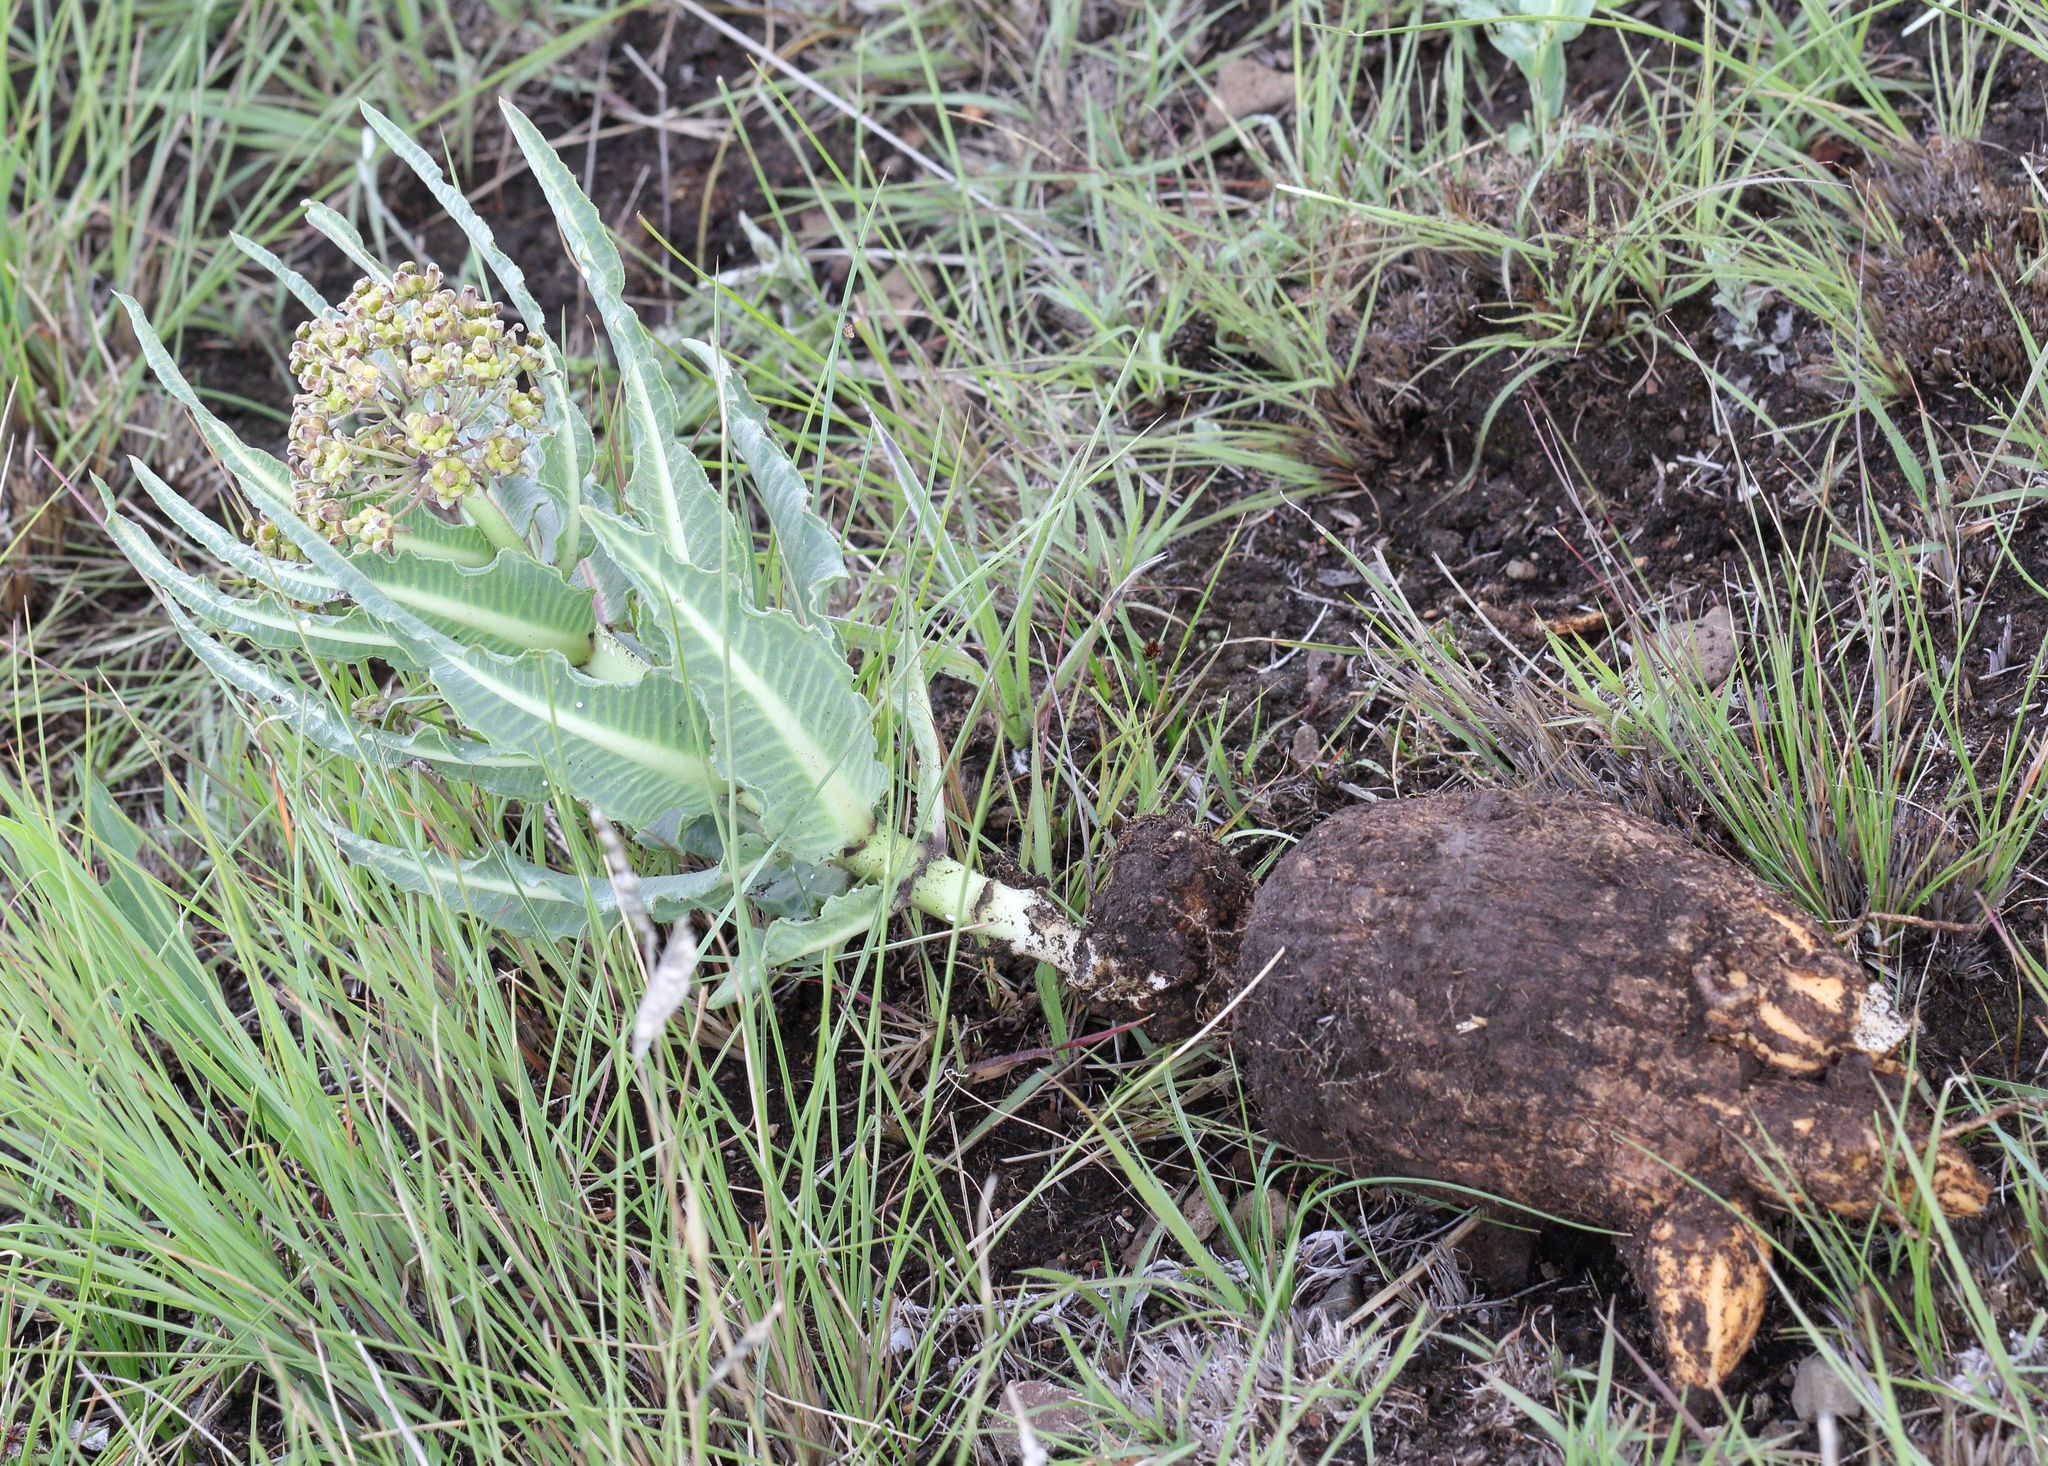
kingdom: Plantae
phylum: Tracheophyta
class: Magnoliopsida
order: Gentianales
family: Apocynaceae
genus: Xysmalobium
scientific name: Xysmalobium stockenstromense
